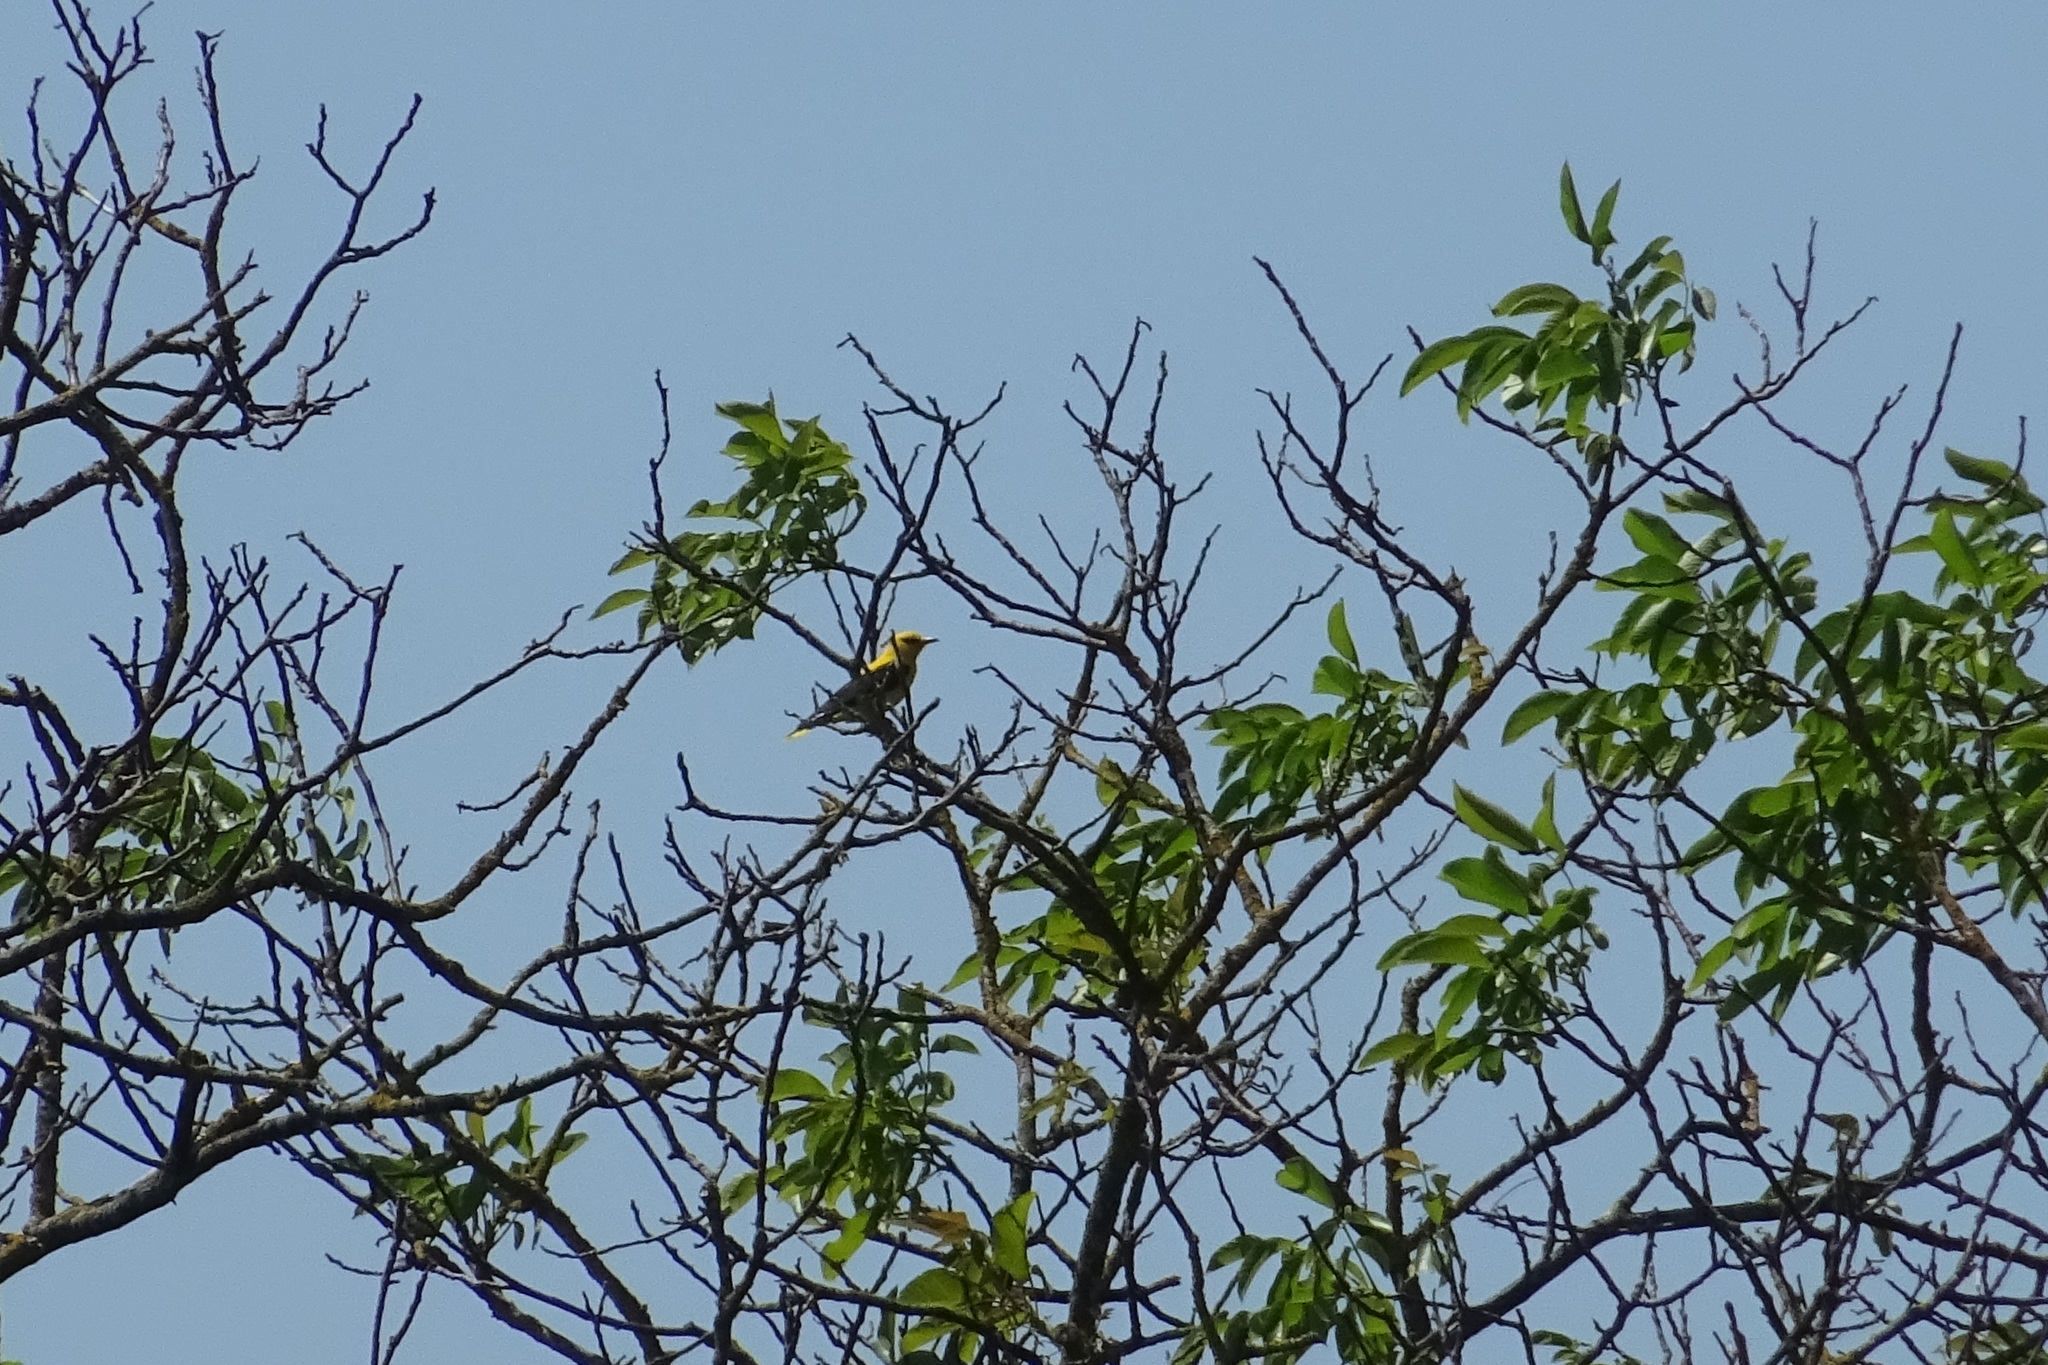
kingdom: Animalia
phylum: Chordata
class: Aves
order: Passeriformes
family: Oriolidae
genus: Oriolus
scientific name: Oriolus oriolus
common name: Eurasian golden oriole
